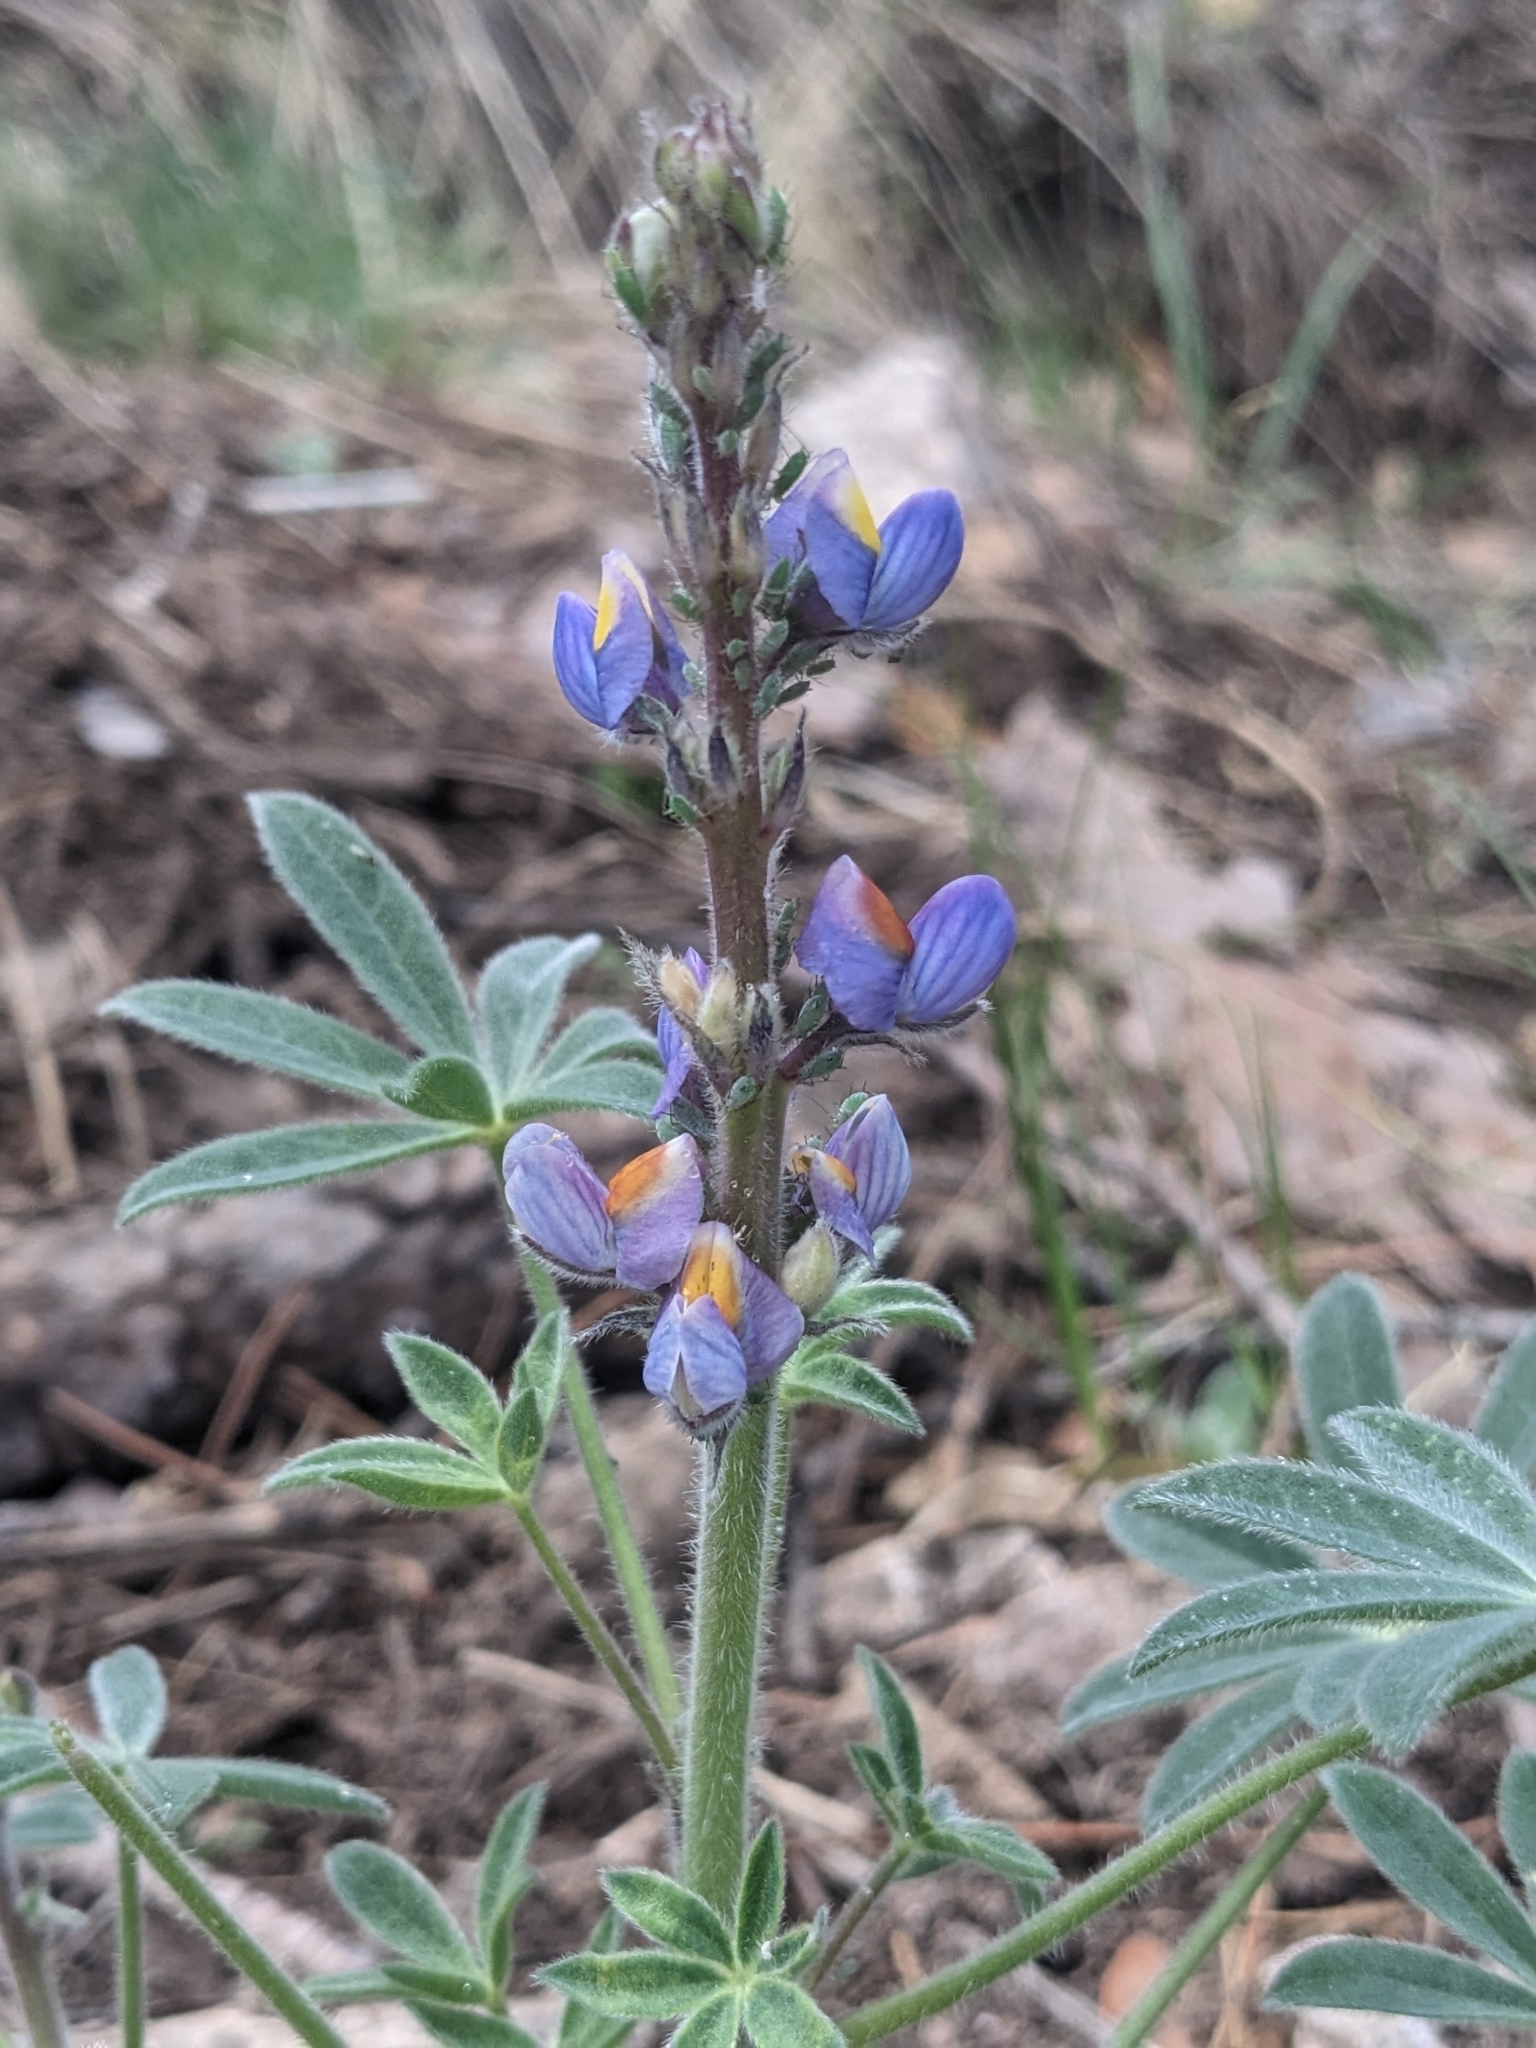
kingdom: Plantae
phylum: Tracheophyta
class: Magnoliopsida
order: Fabales
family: Fabaceae
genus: Lupinus
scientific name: Lupinus huachucanus
